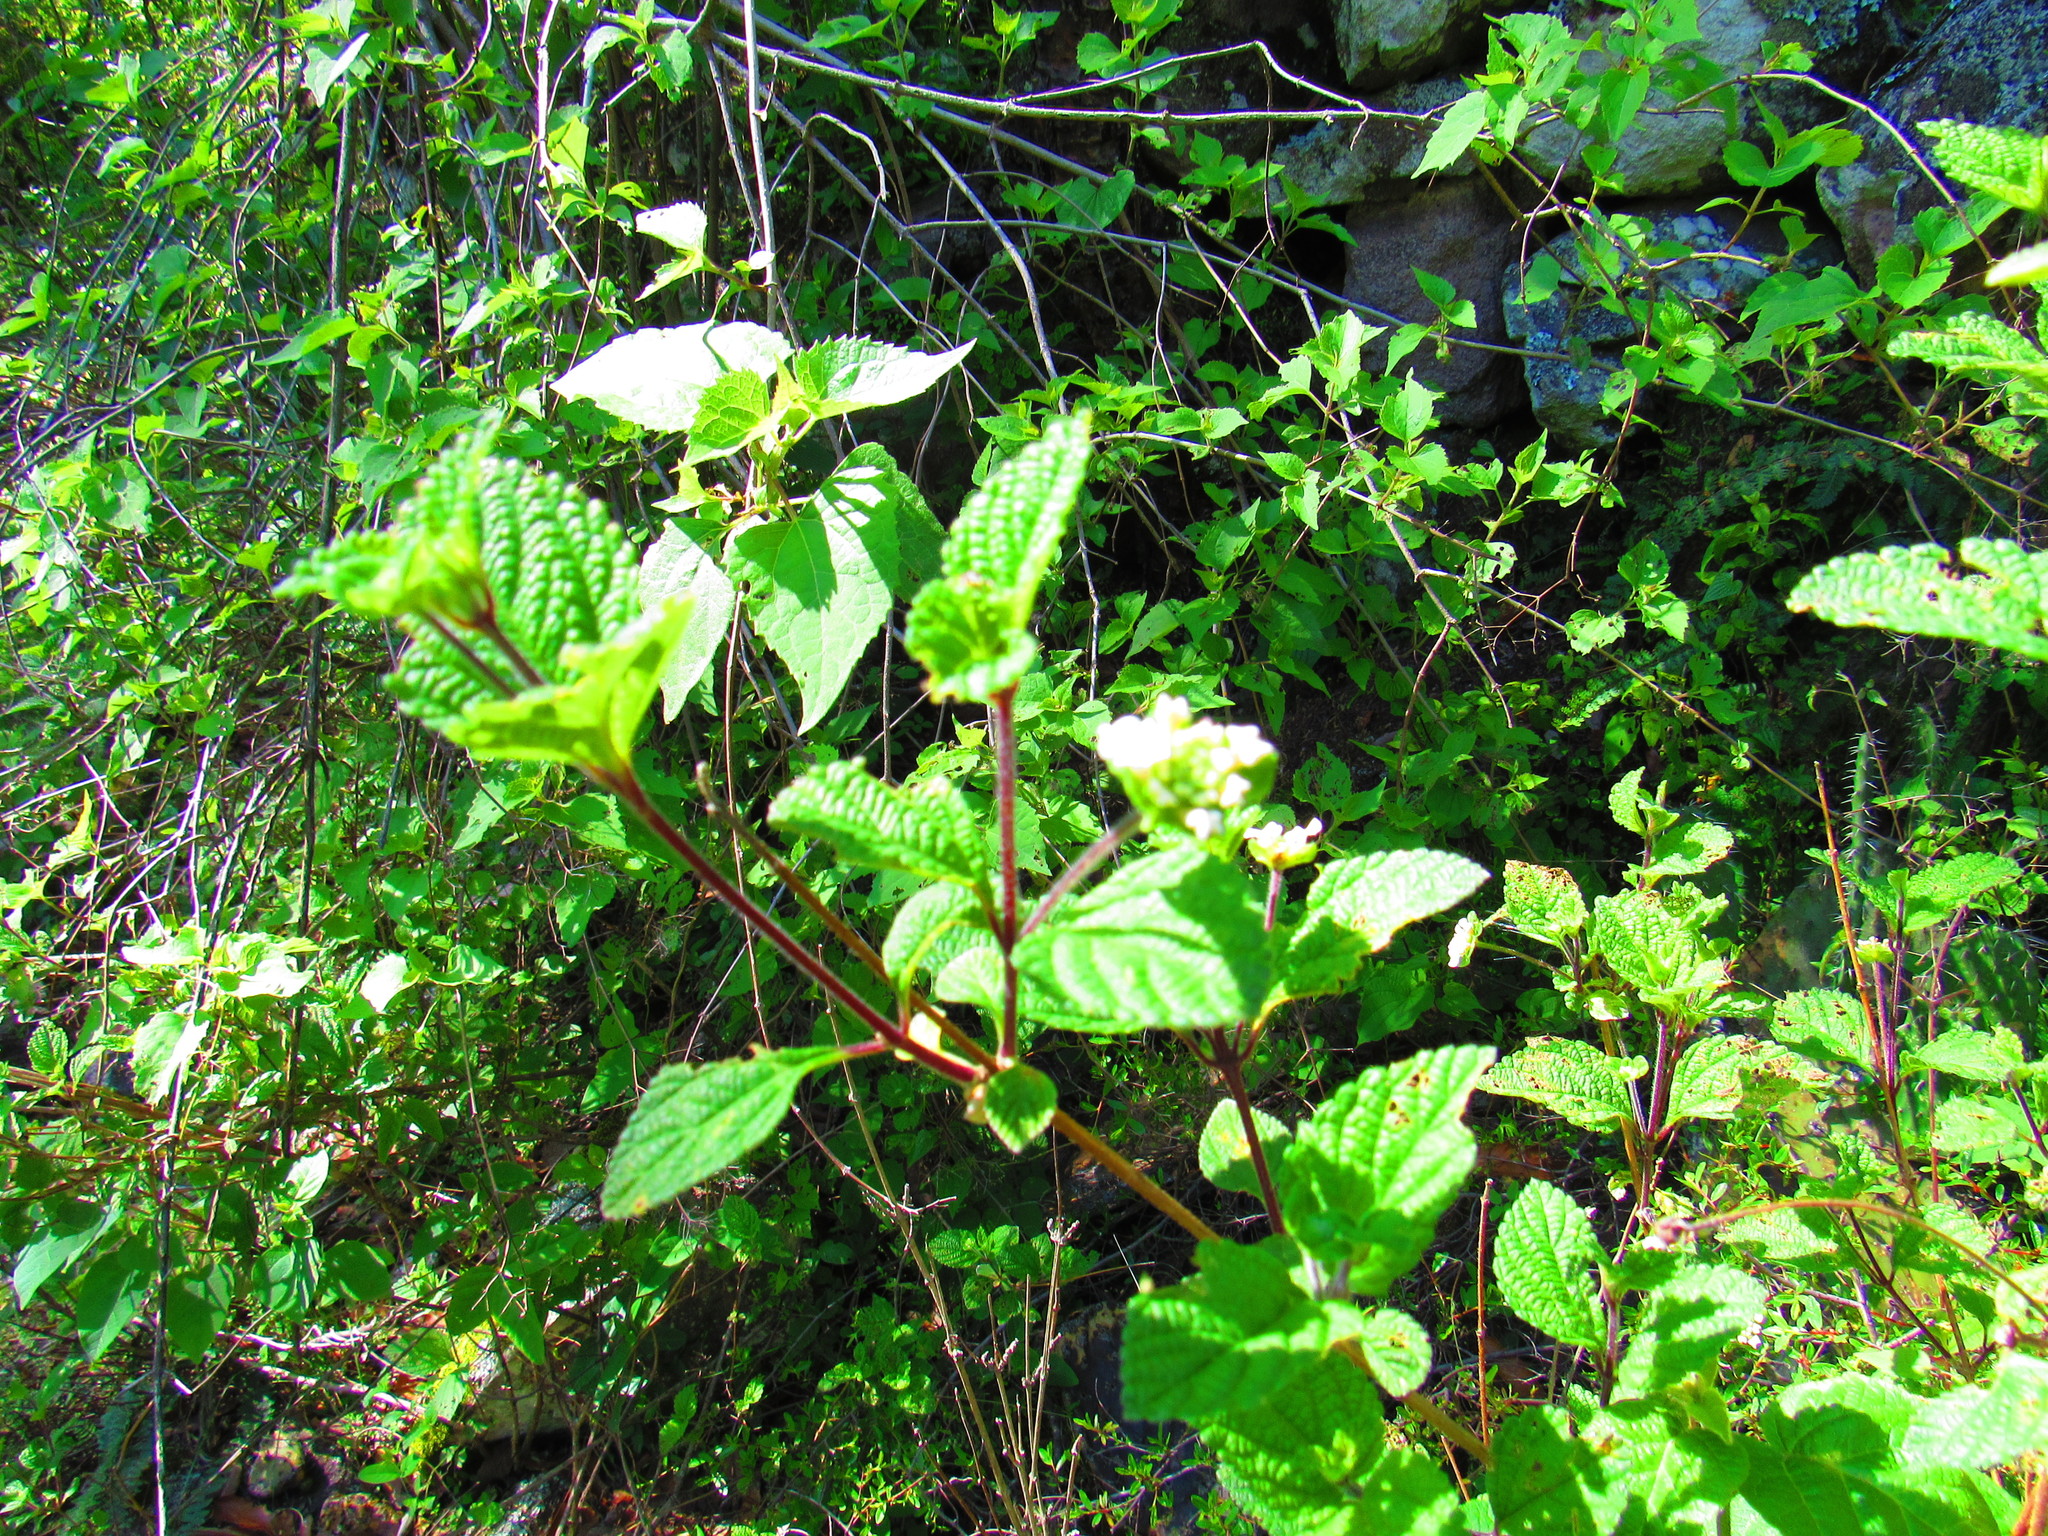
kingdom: Plantae
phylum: Tracheophyta
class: Magnoliopsida
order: Lamiales
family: Verbenaceae
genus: Lantana
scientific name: Lantana camara
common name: Lantana
